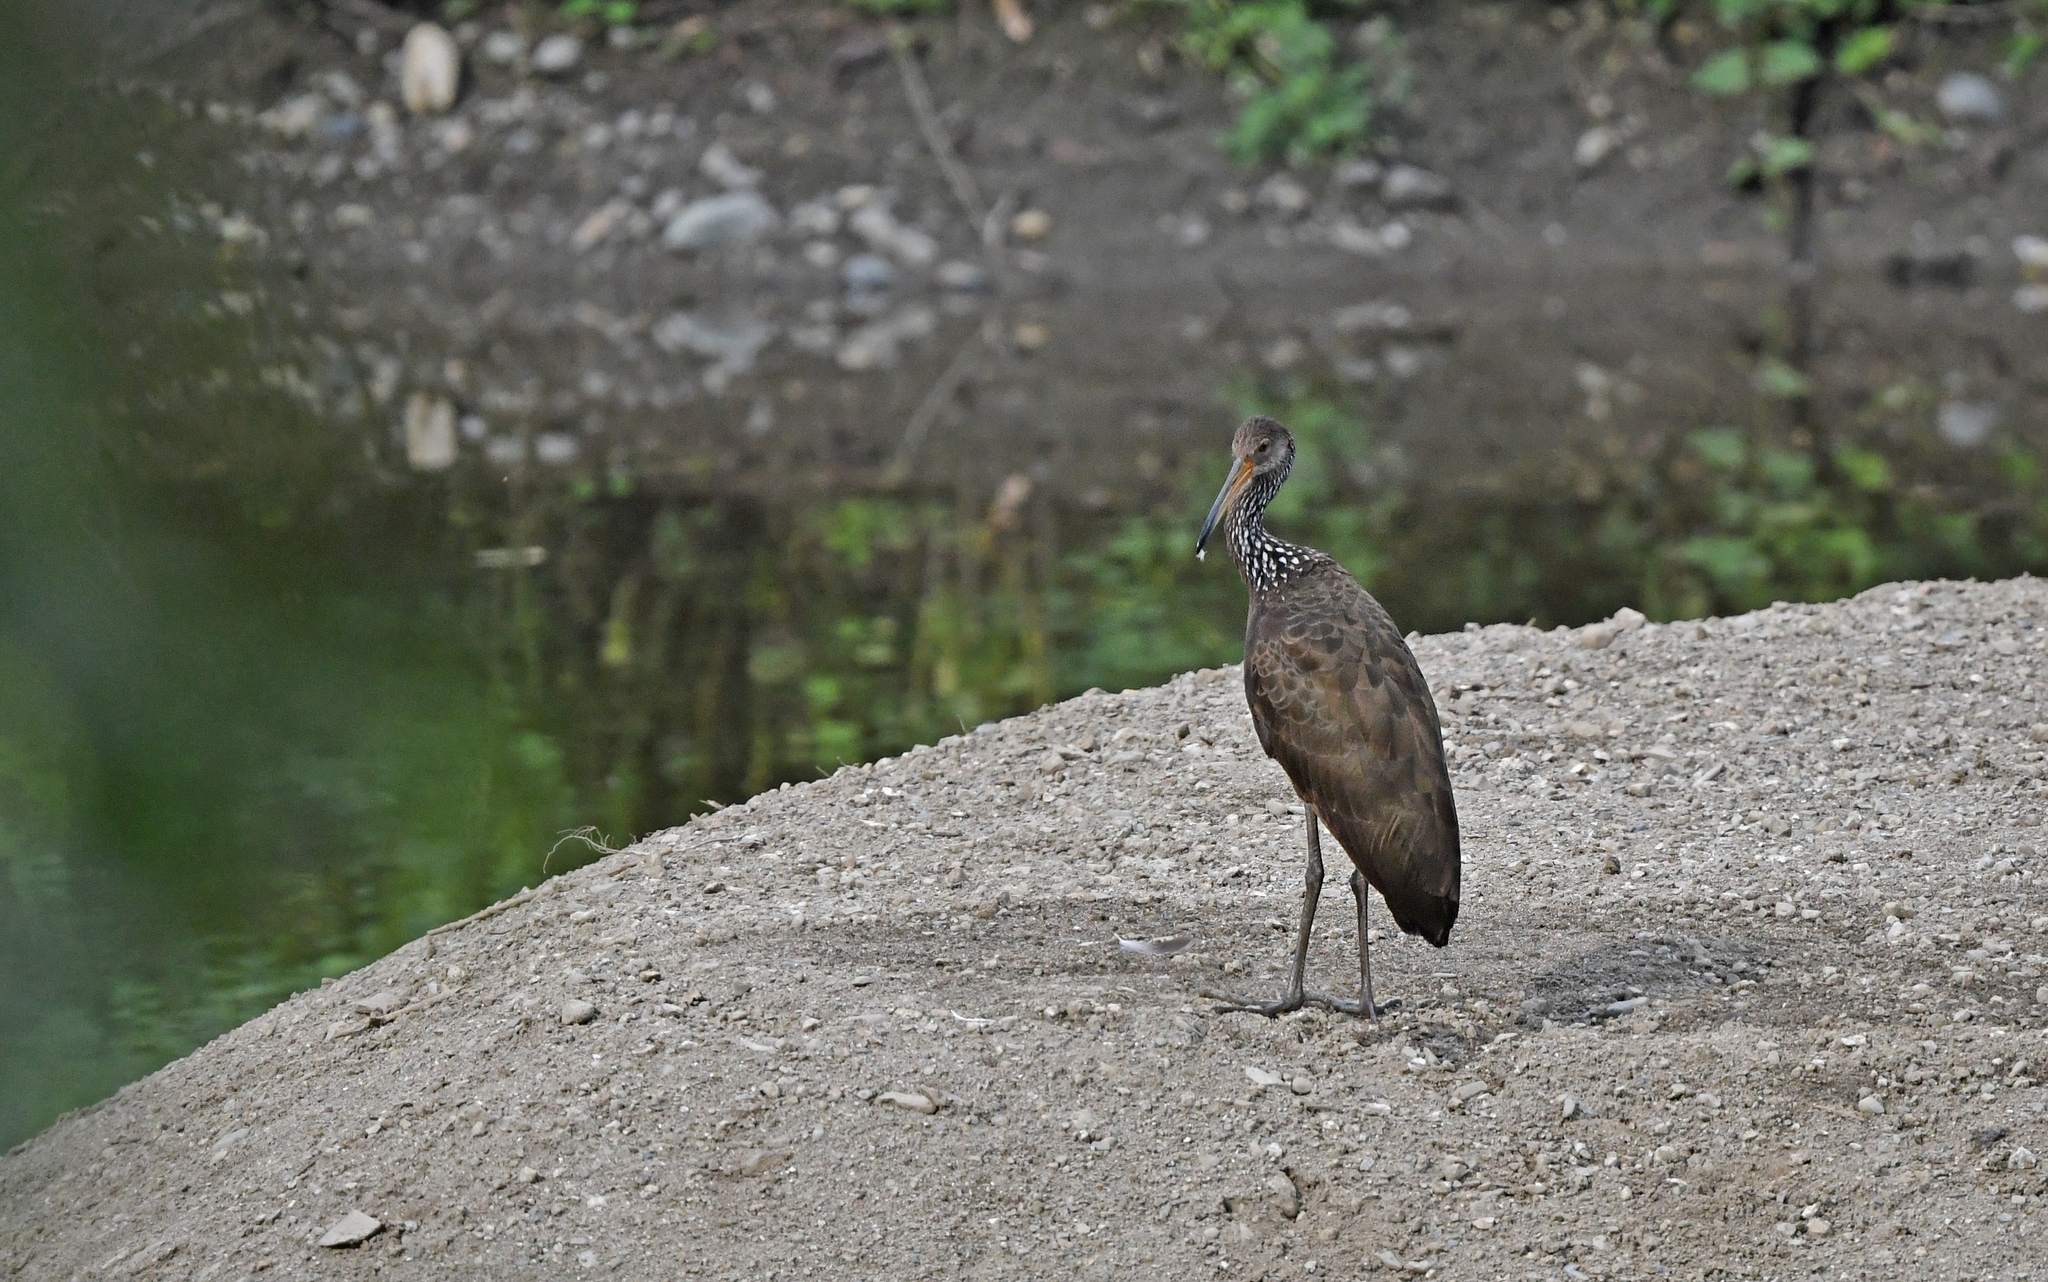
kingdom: Animalia
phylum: Chordata
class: Aves
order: Gruiformes
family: Aramidae
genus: Aramus
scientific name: Aramus guarauna
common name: Limpkin
